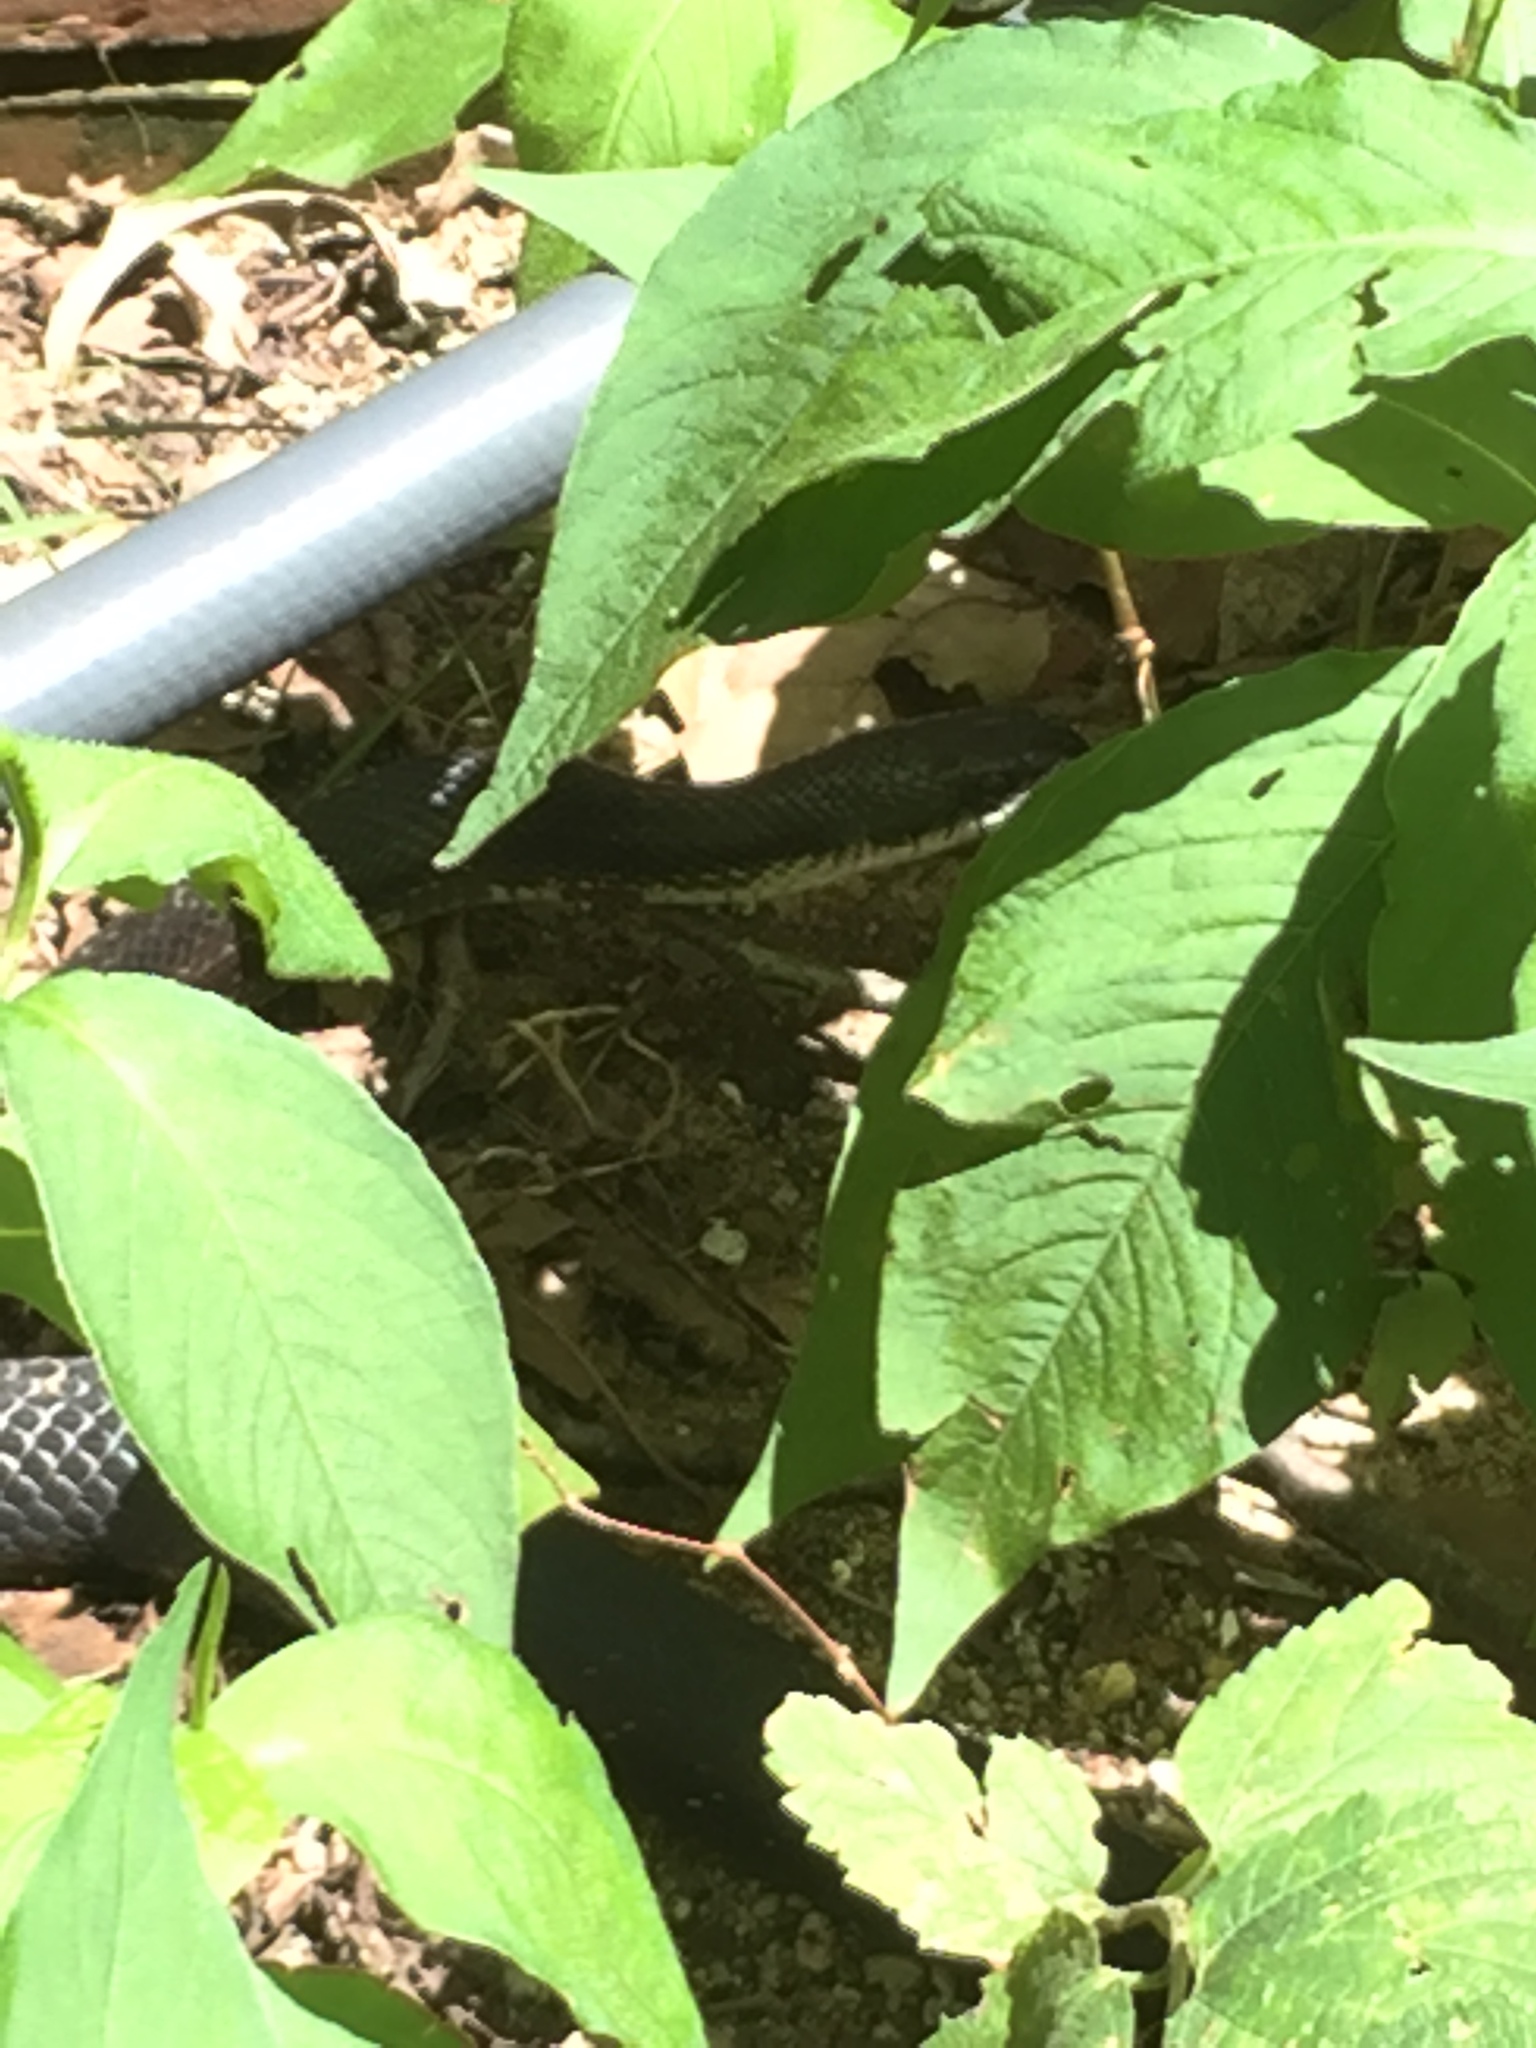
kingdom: Animalia
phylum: Chordata
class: Squamata
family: Colubridae
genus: Pantherophis
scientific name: Pantherophis spiloides
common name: Gray rat snake
